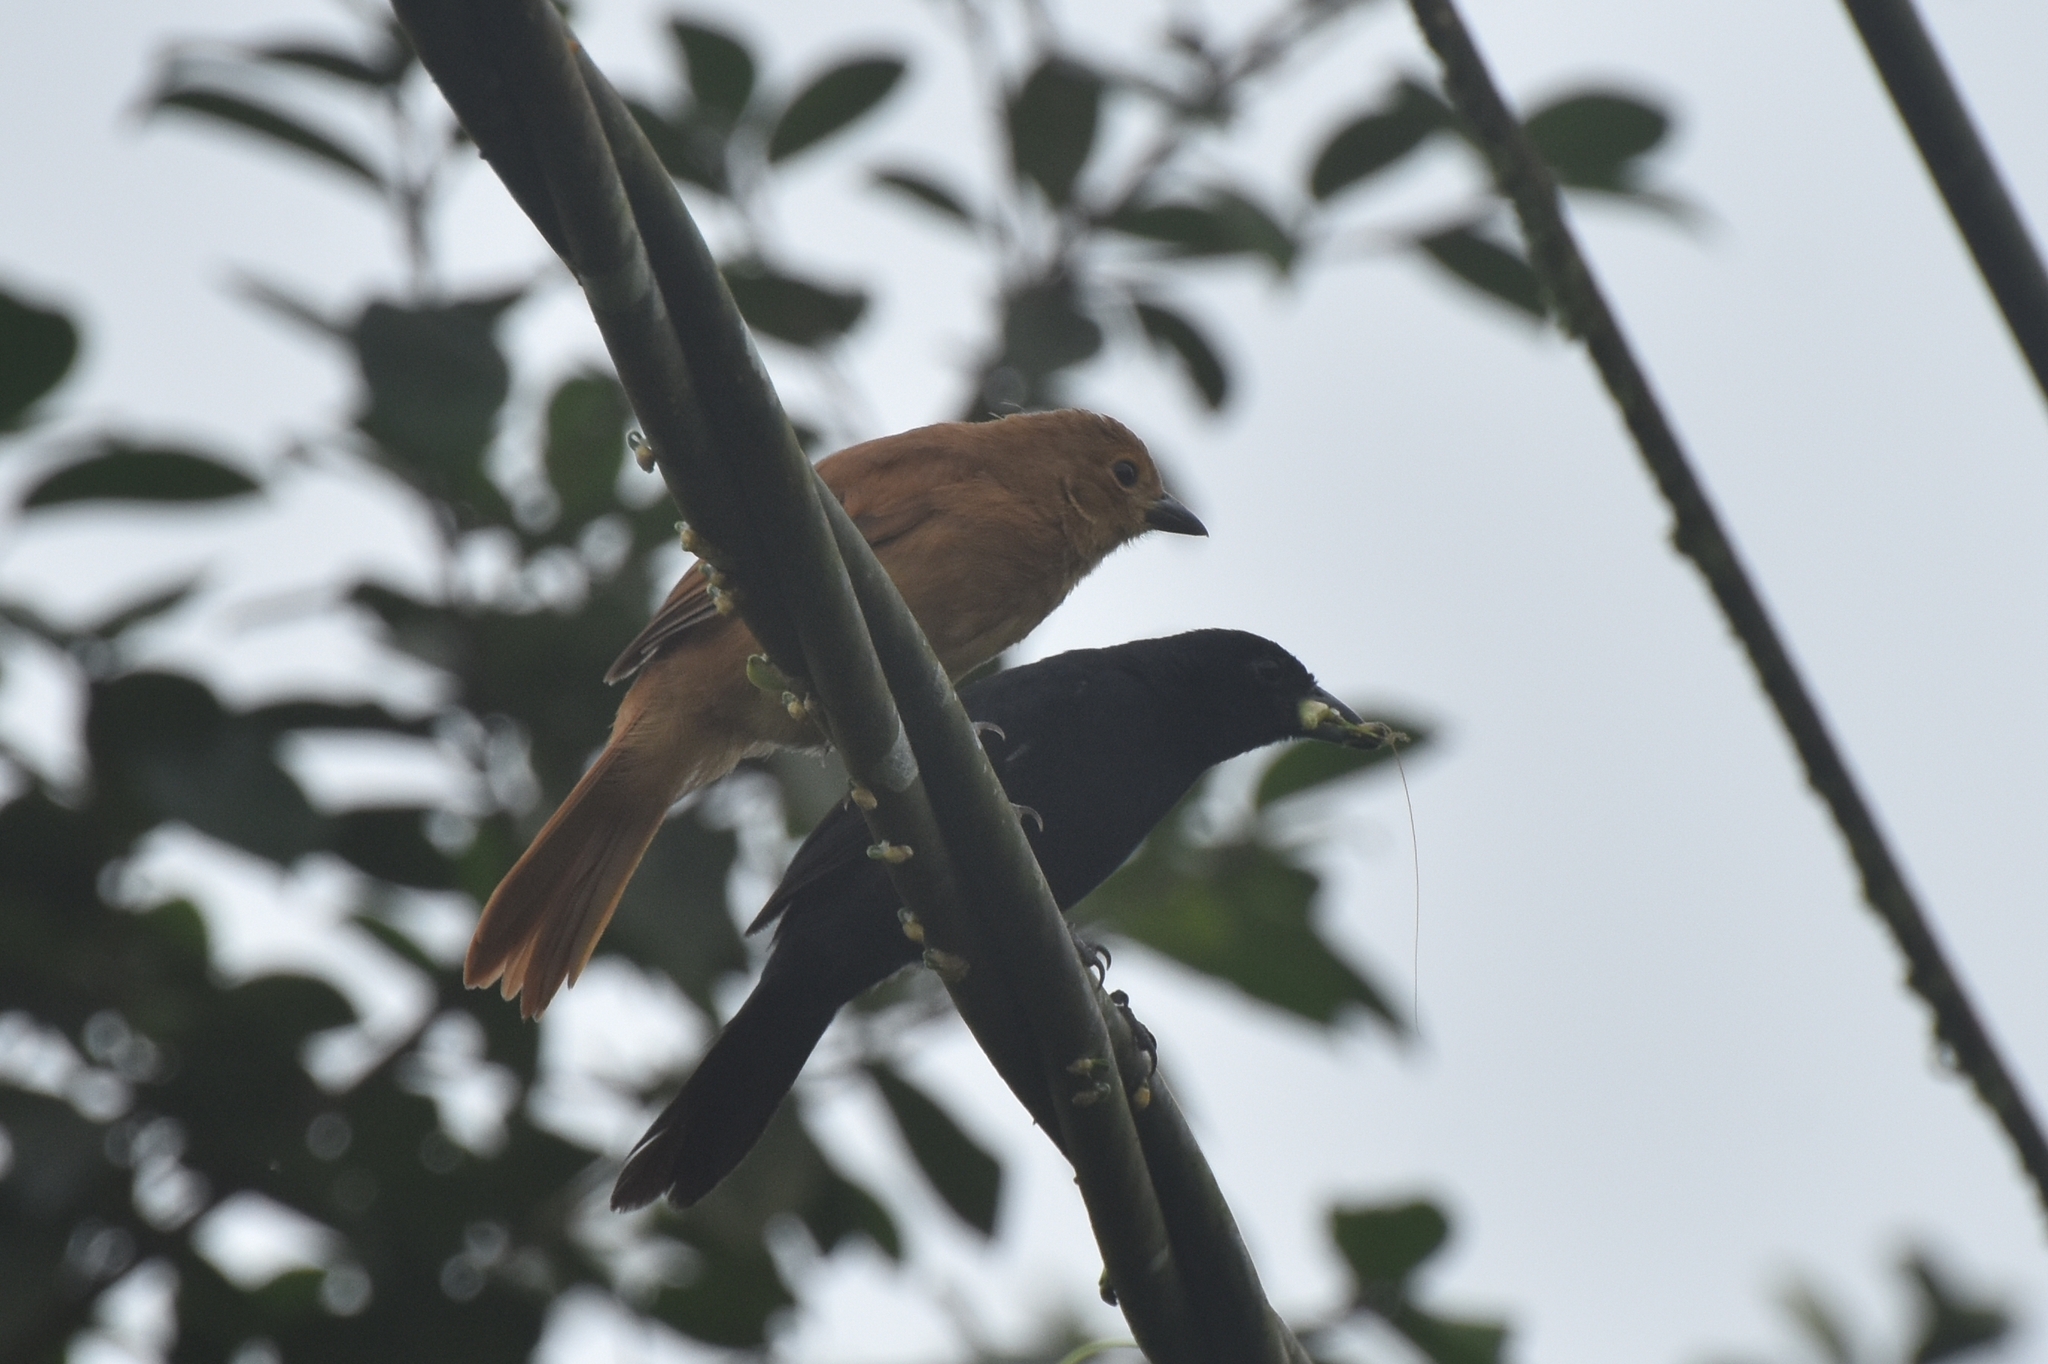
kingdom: Animalia
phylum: Chordata
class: Aves
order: Passeriformes
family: Thraupidae
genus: Tachyphonus
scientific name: Tachyphonus rufus
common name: White-lined tanager
